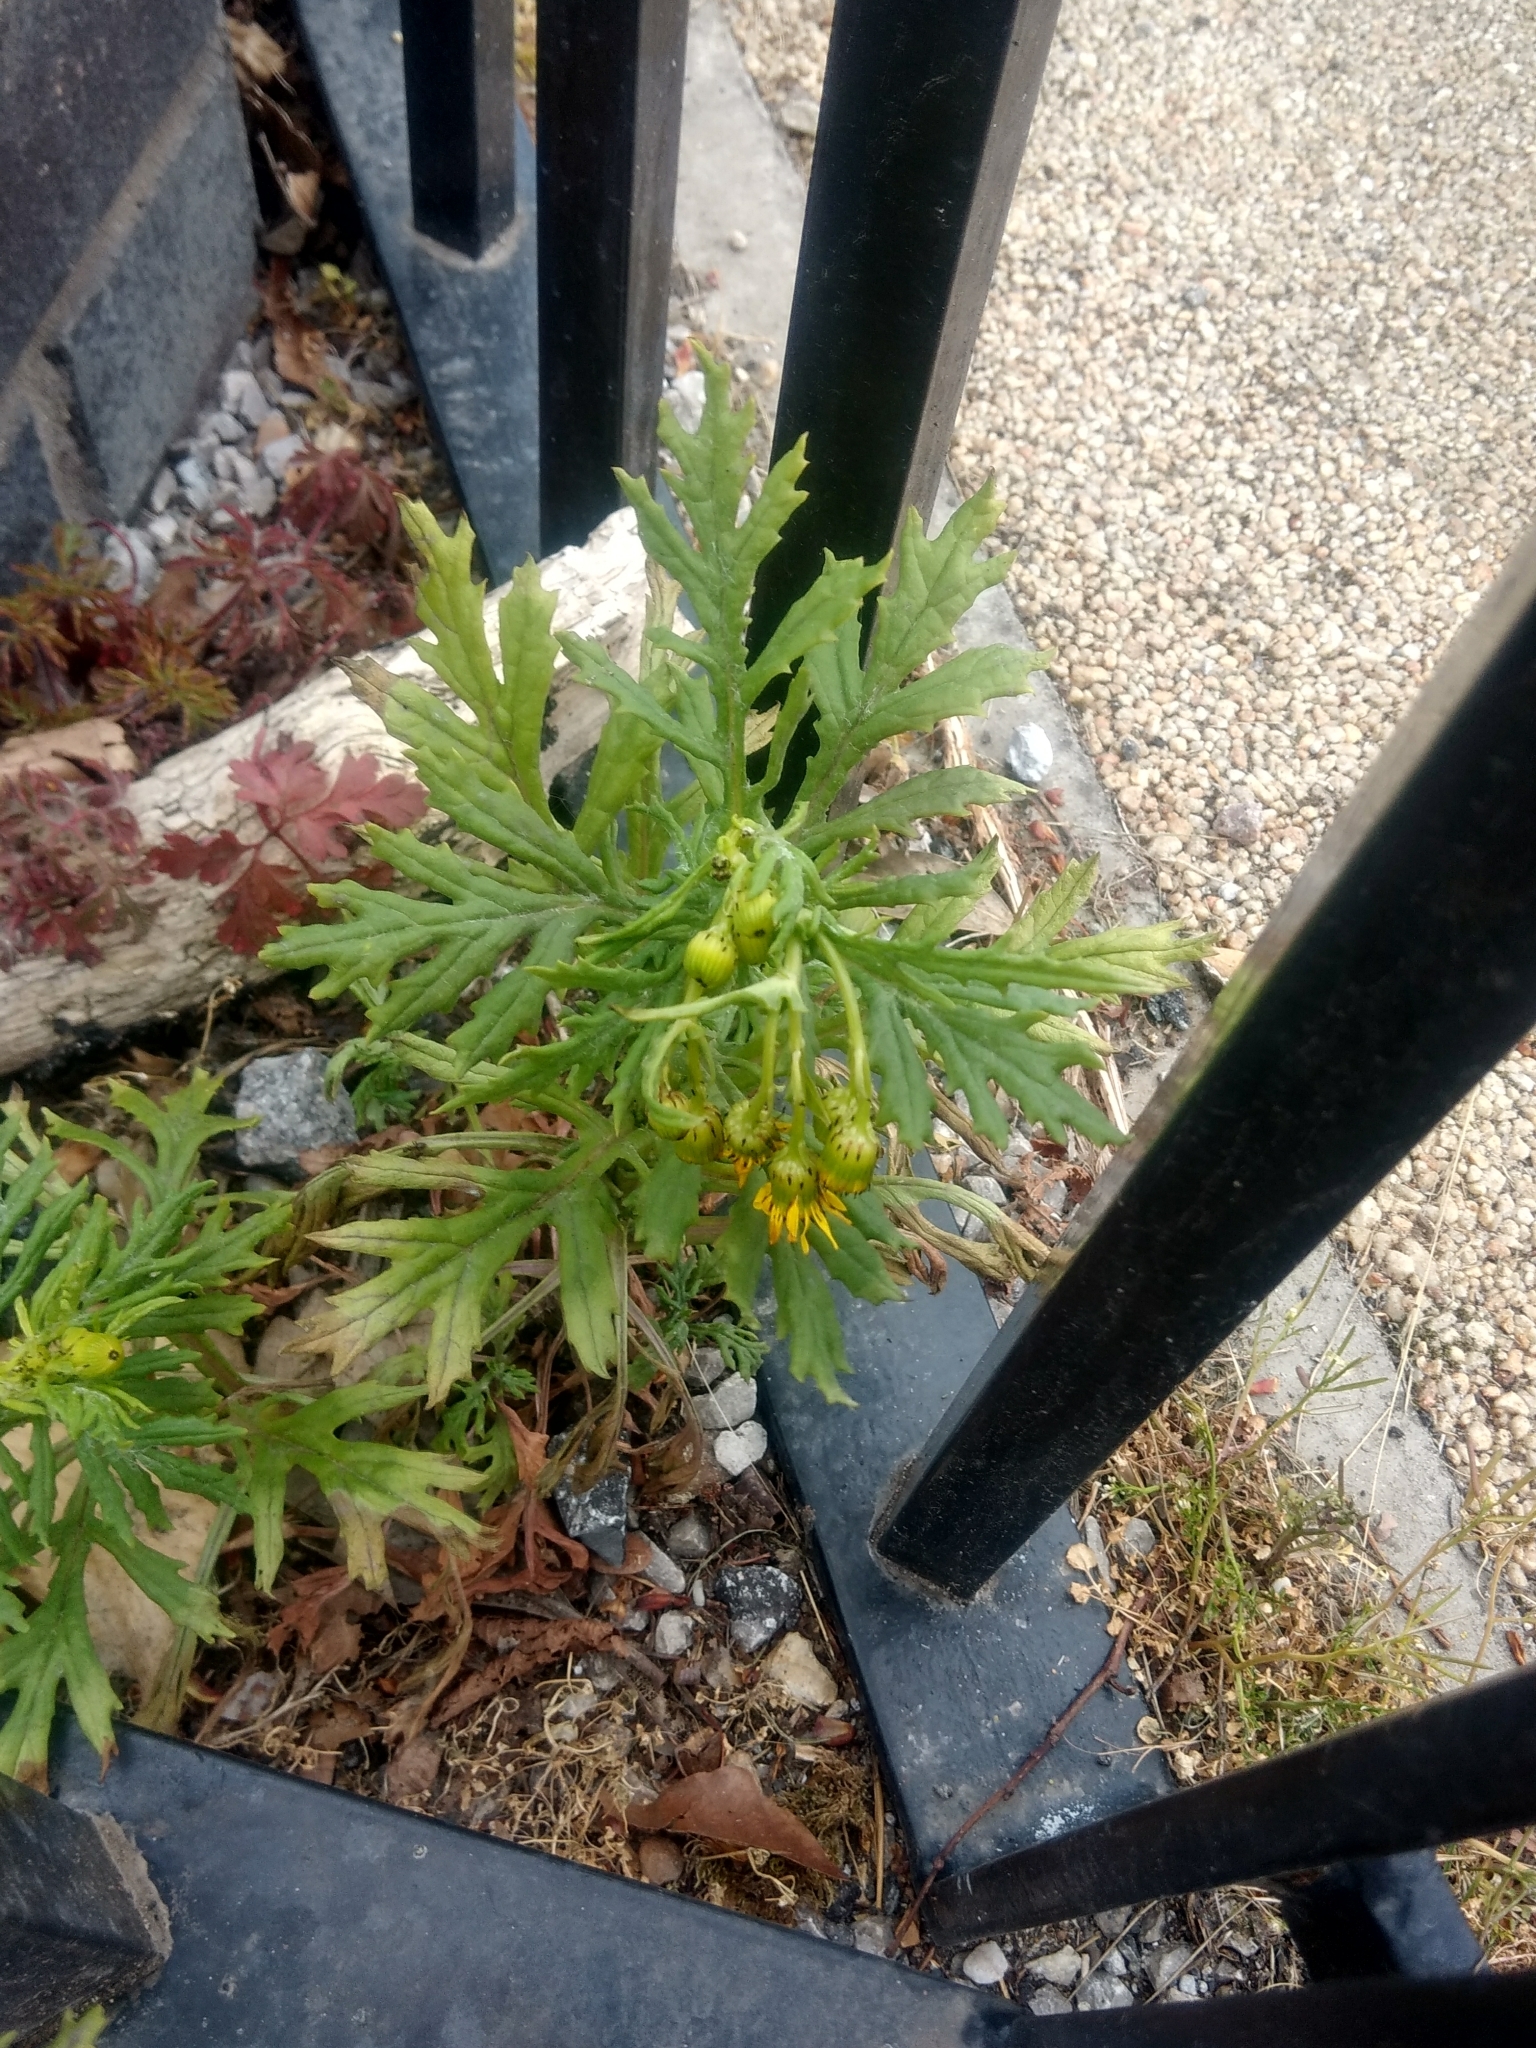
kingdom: Plantae
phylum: Tracheophyta
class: Magnoliopsida
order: Asterales
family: Asteraceae
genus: Senecio
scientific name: Senecio squalidus
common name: Oxford ragwort
